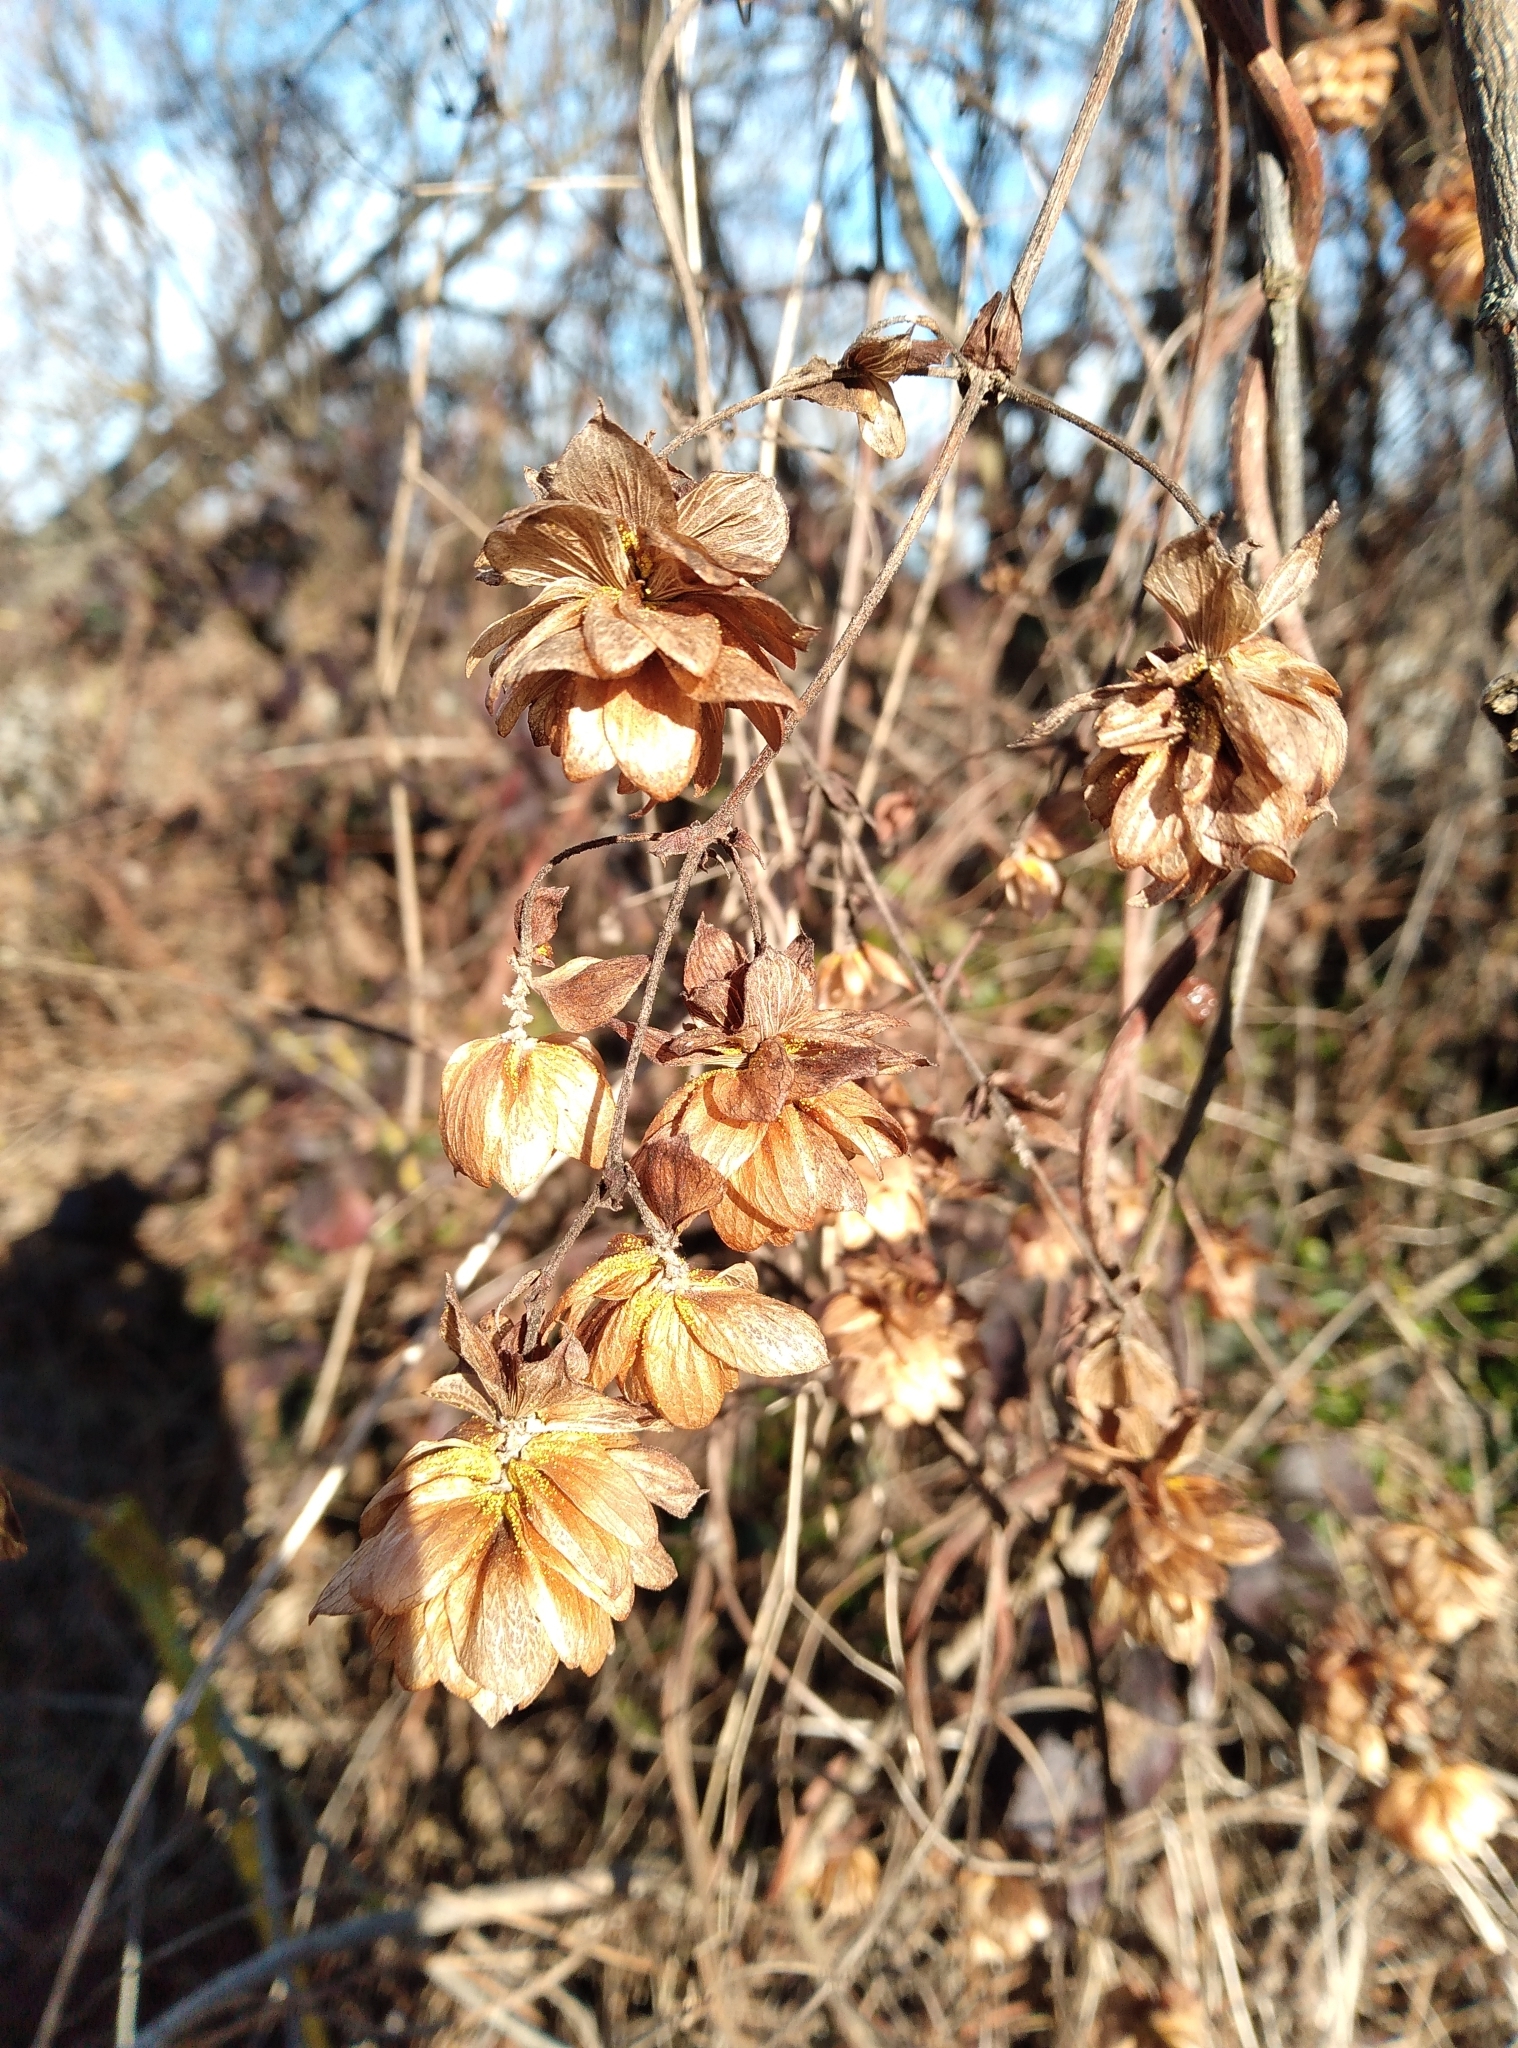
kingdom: Plantae
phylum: Tracheophyta
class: Magnoliopsida
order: Rosales
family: Cannabaceae
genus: Humulus
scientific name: Humulus lupulus
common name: Hop
